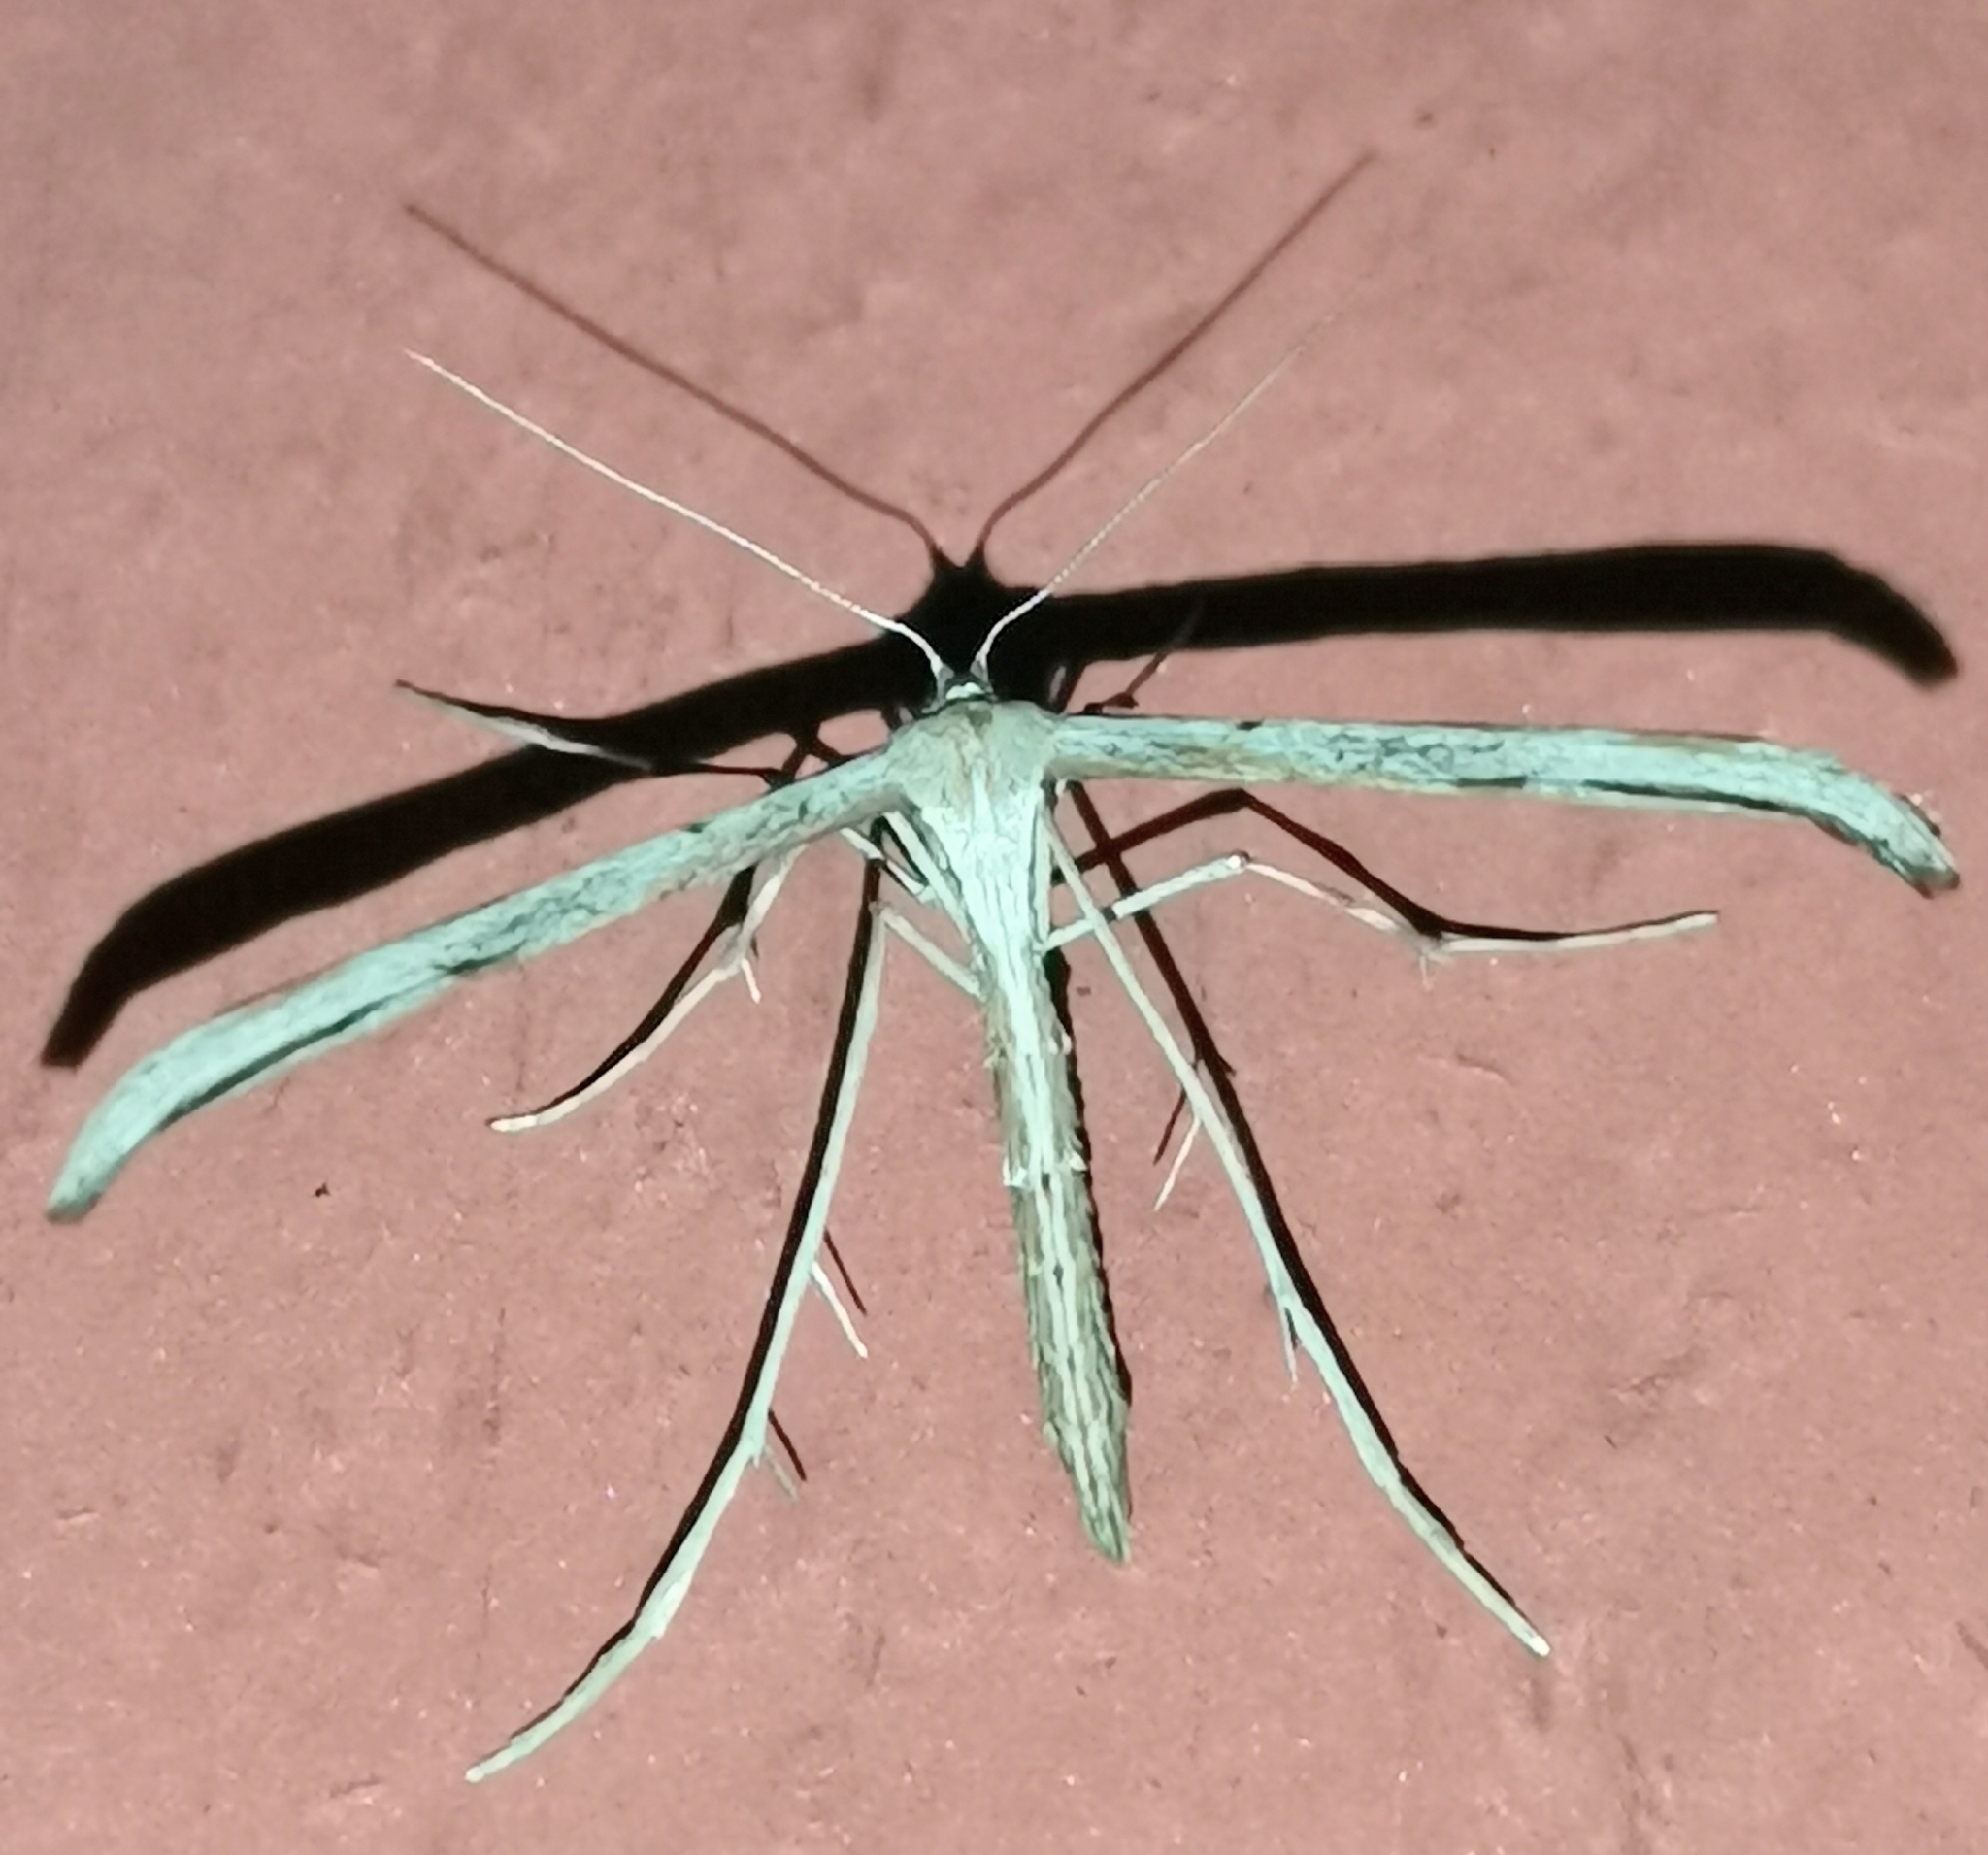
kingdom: Animalia
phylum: Arthropoda
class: Insecta
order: Lepidoptera
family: Pterophoridae
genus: Emmelina
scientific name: Emmelina monodactyla
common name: Common plume
